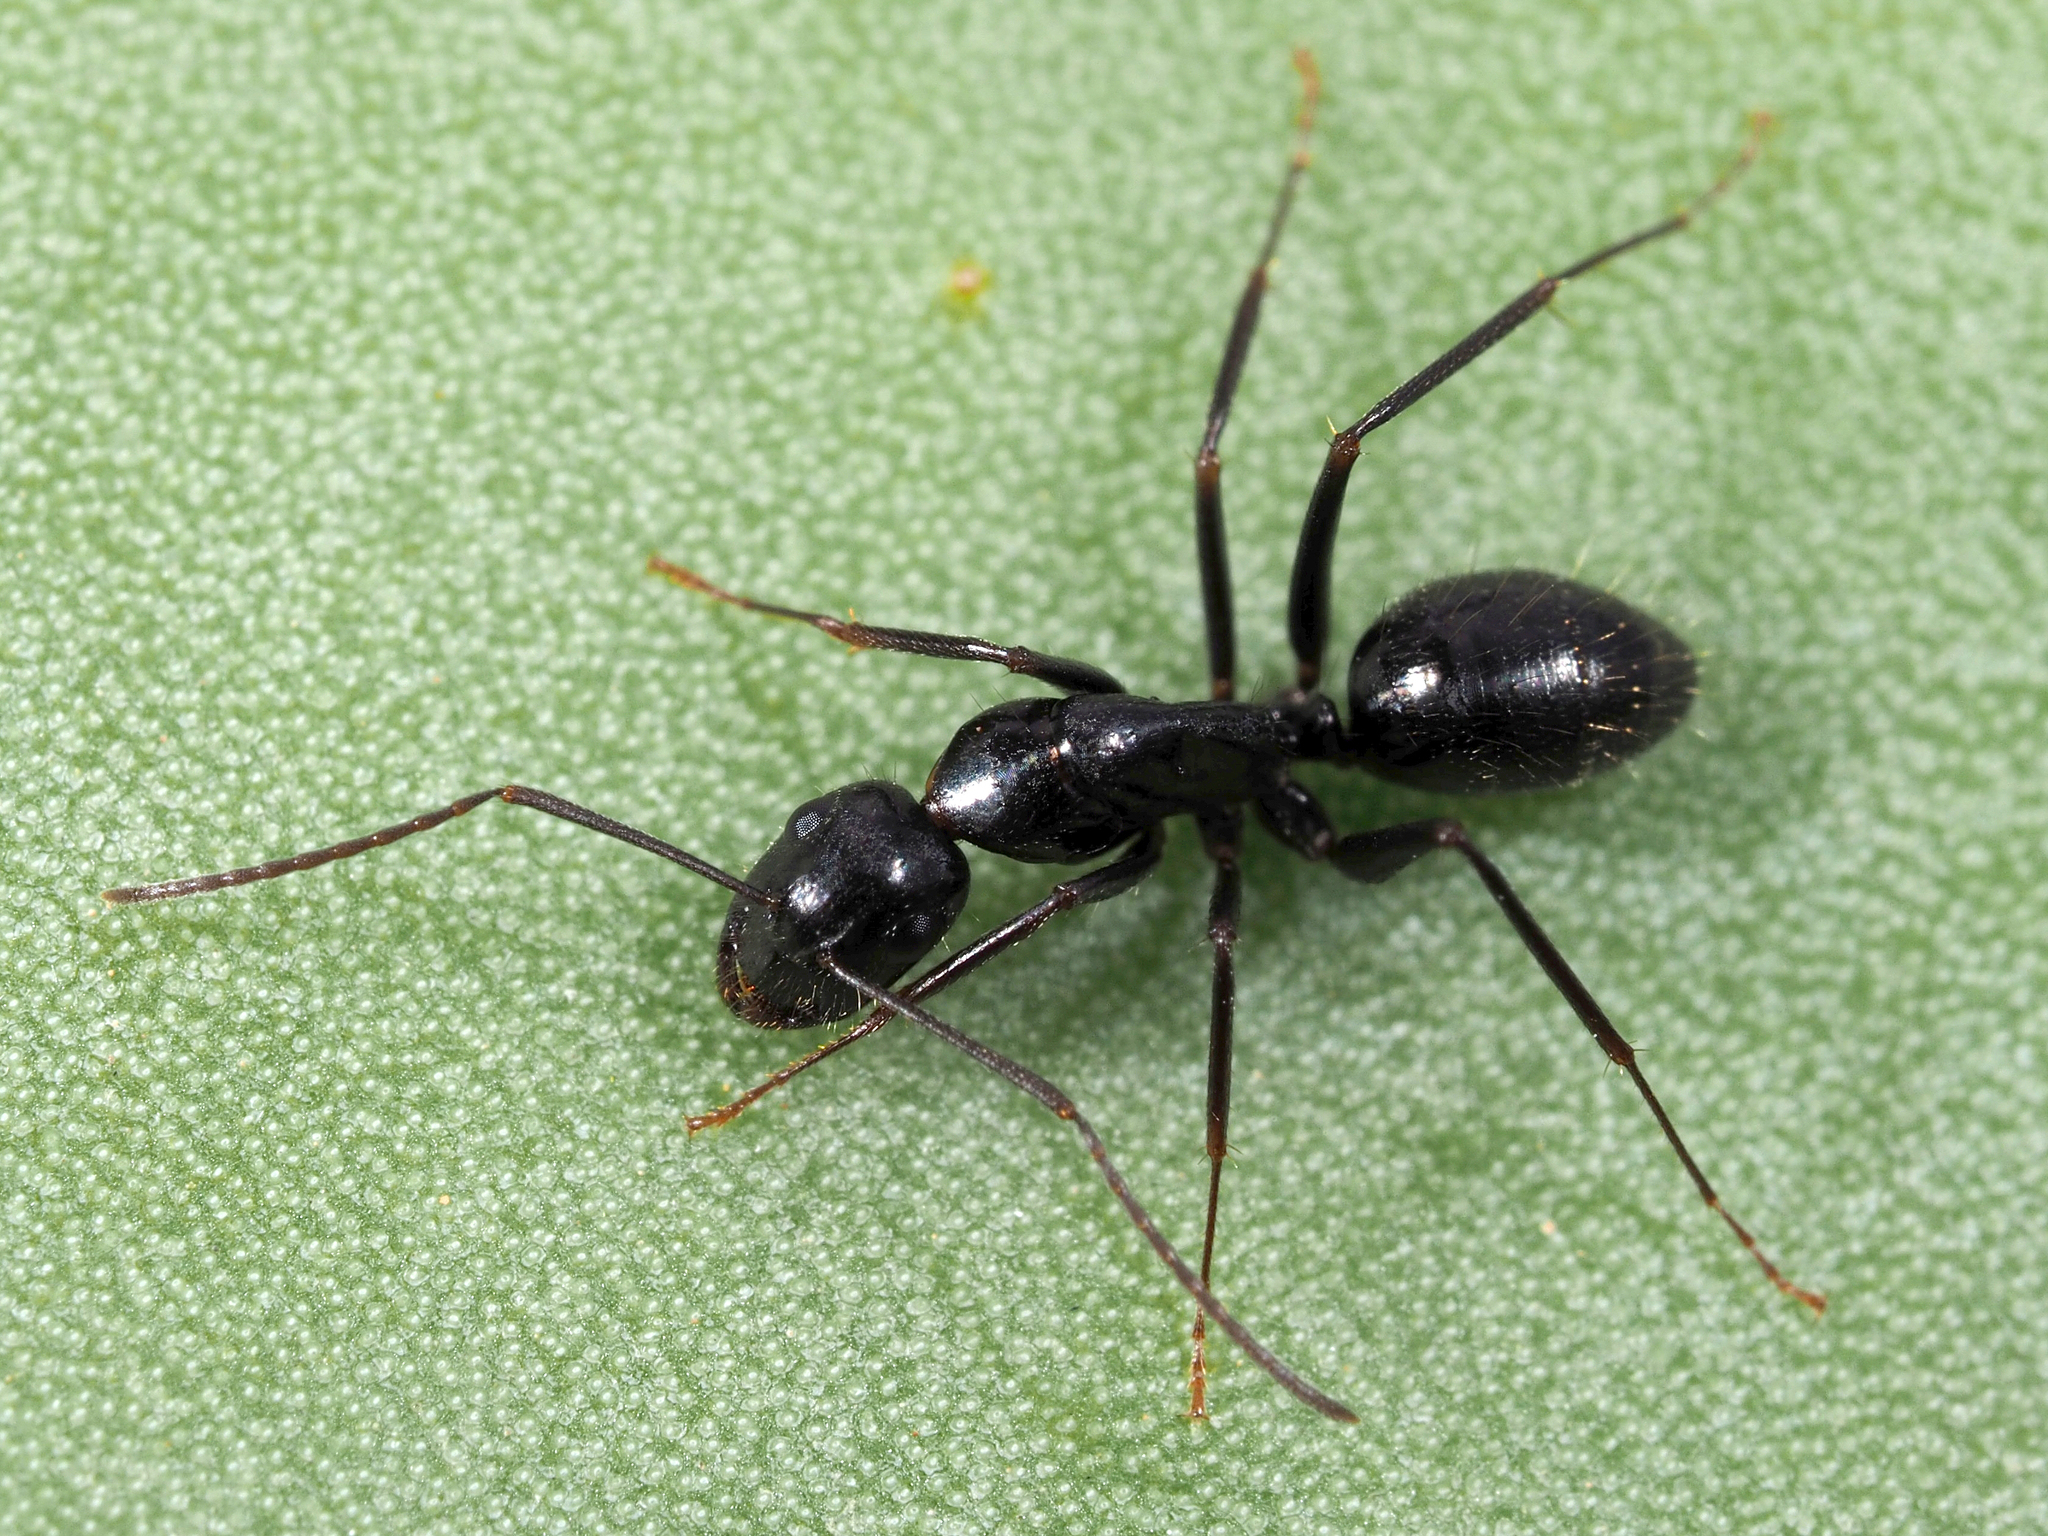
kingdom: Animalia
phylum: Arthropoda
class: Insecta
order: Hymenoptera
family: Formicidae
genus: Camponotus
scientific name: Camponotus aethiops
